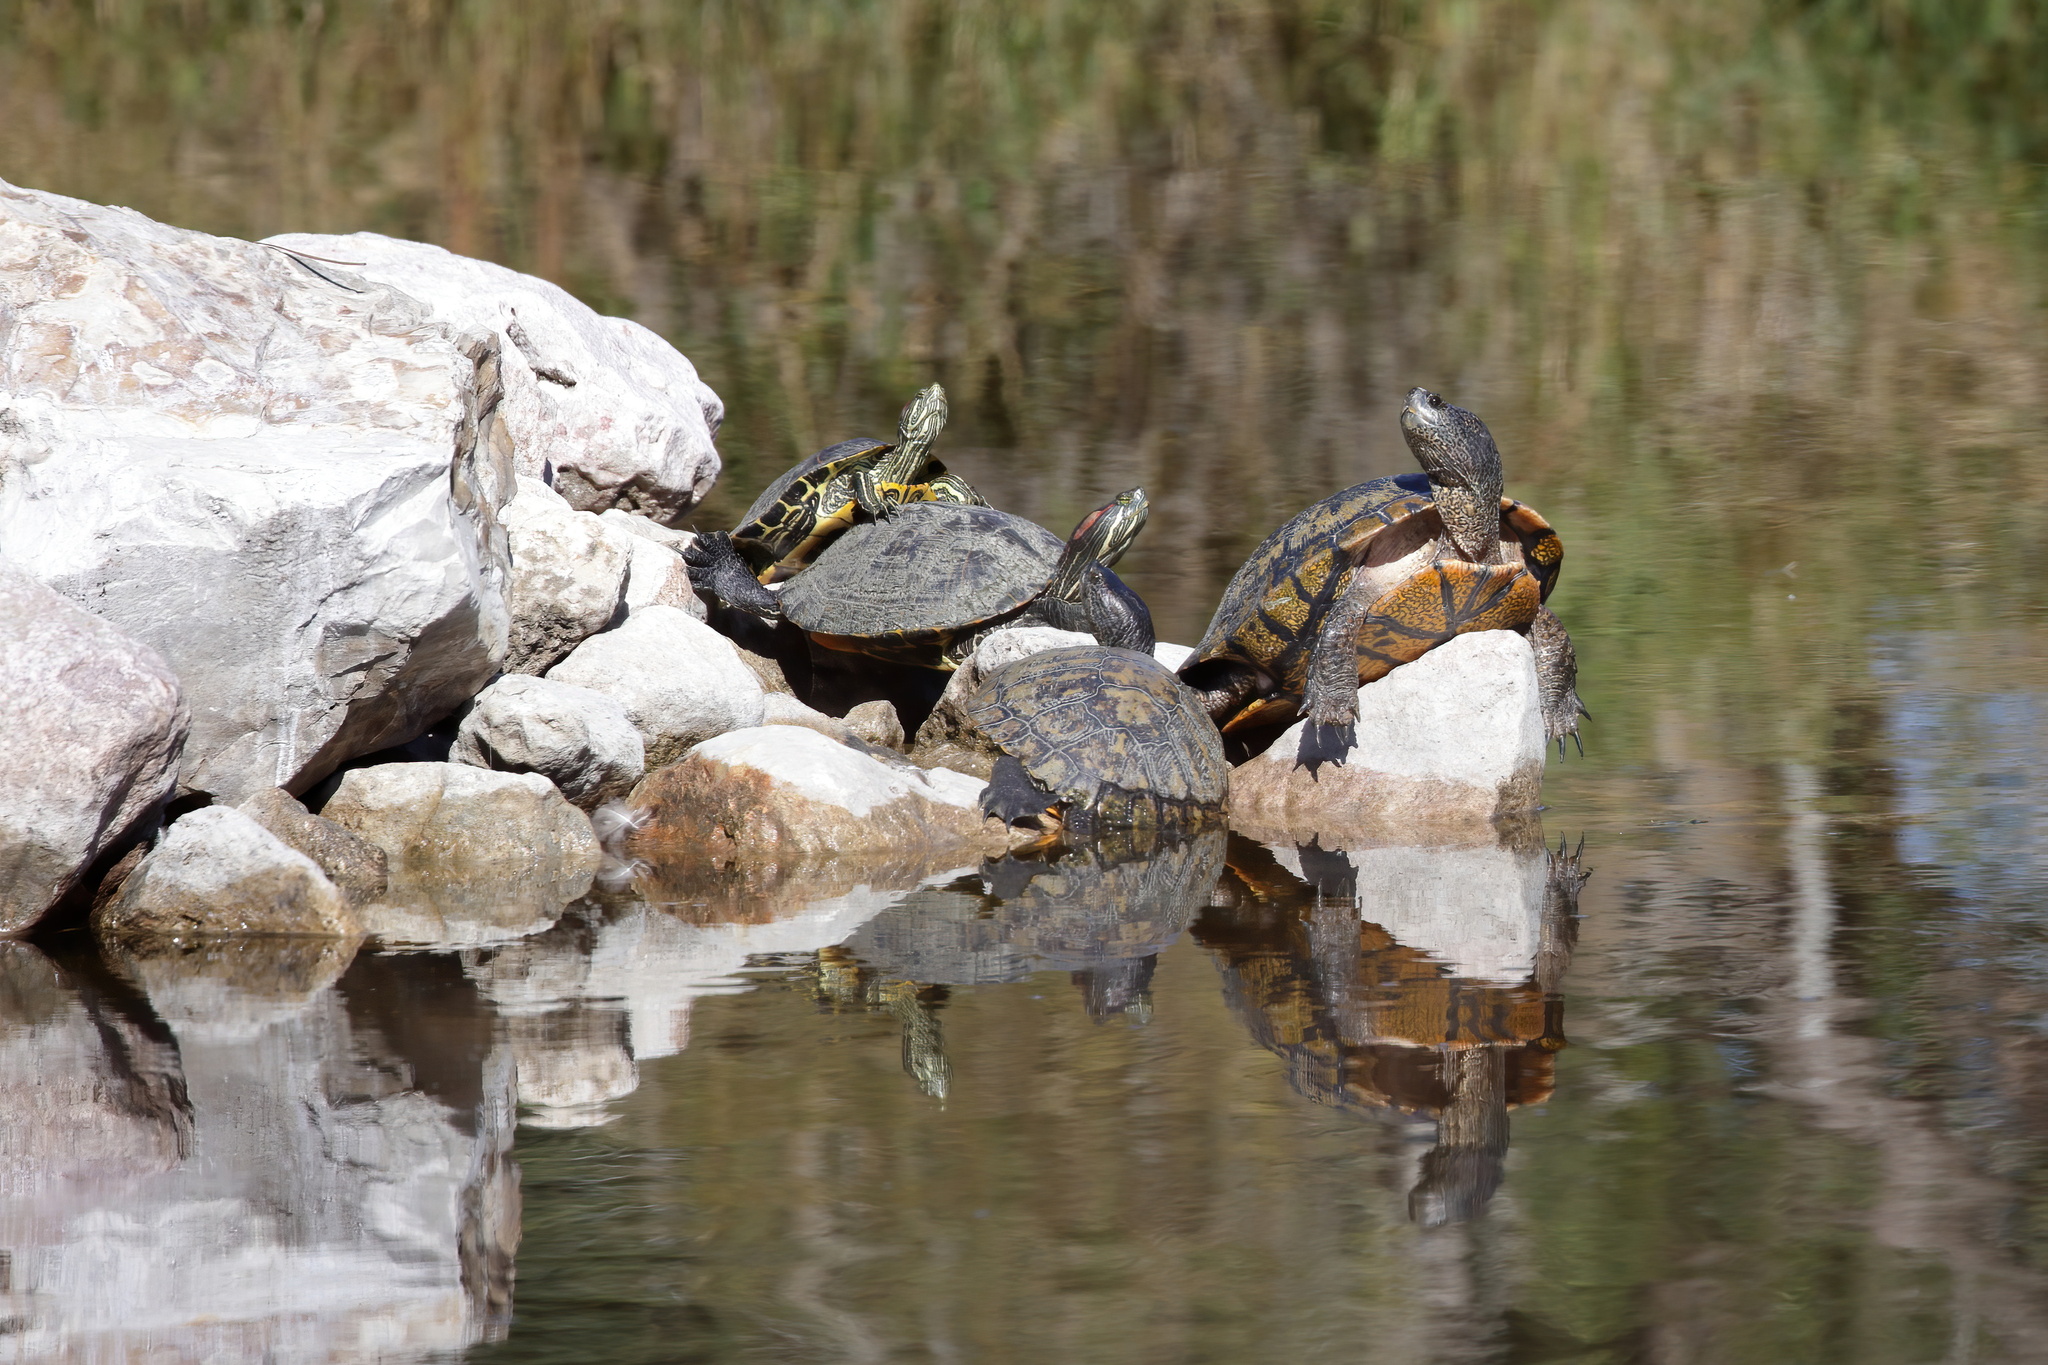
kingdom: Animalia
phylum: Chordata
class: Testudines
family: Emydidae
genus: Trachemys
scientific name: Trachemys scripta
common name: Slider
